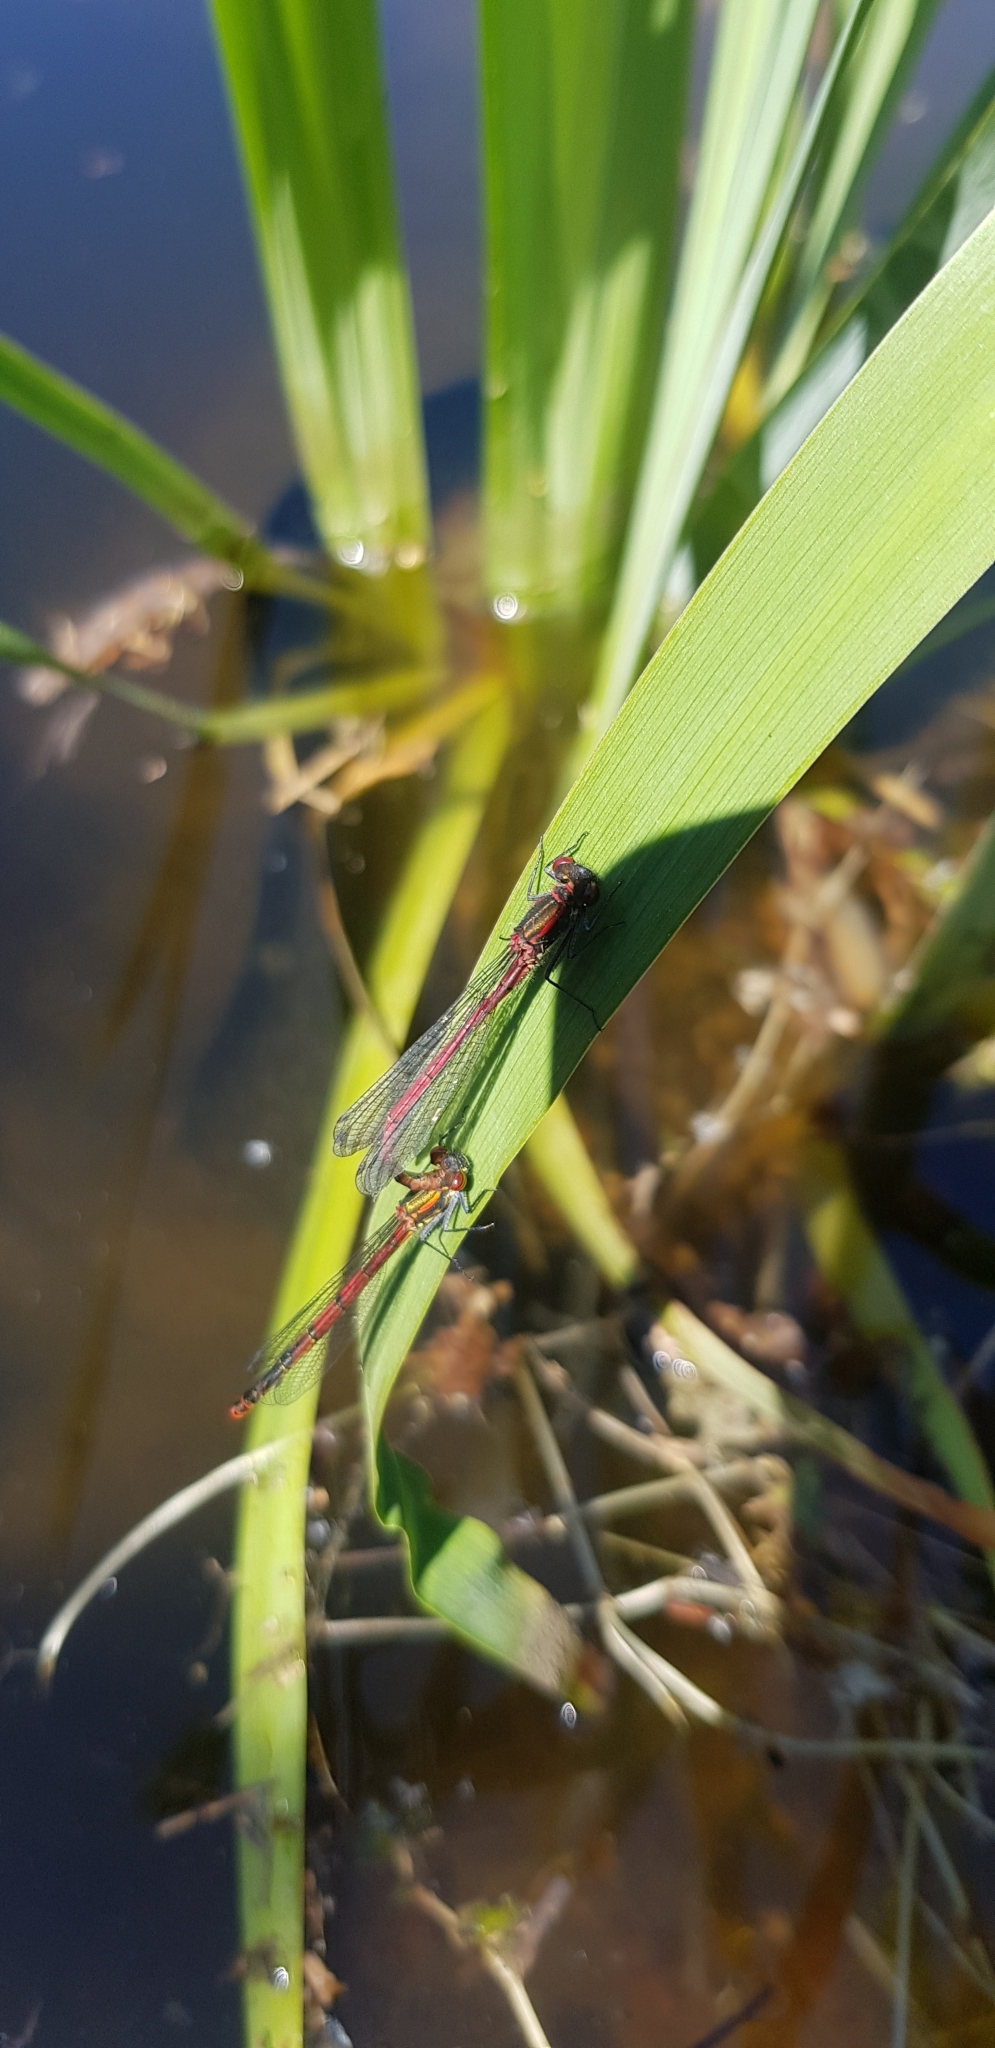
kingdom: Animalia
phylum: Arthropoda
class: Insecta
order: Odonata
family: Coenagrionidae
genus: Pyrrhosoma
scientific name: Pyrrhosoma nymphula
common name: Large red damsel
